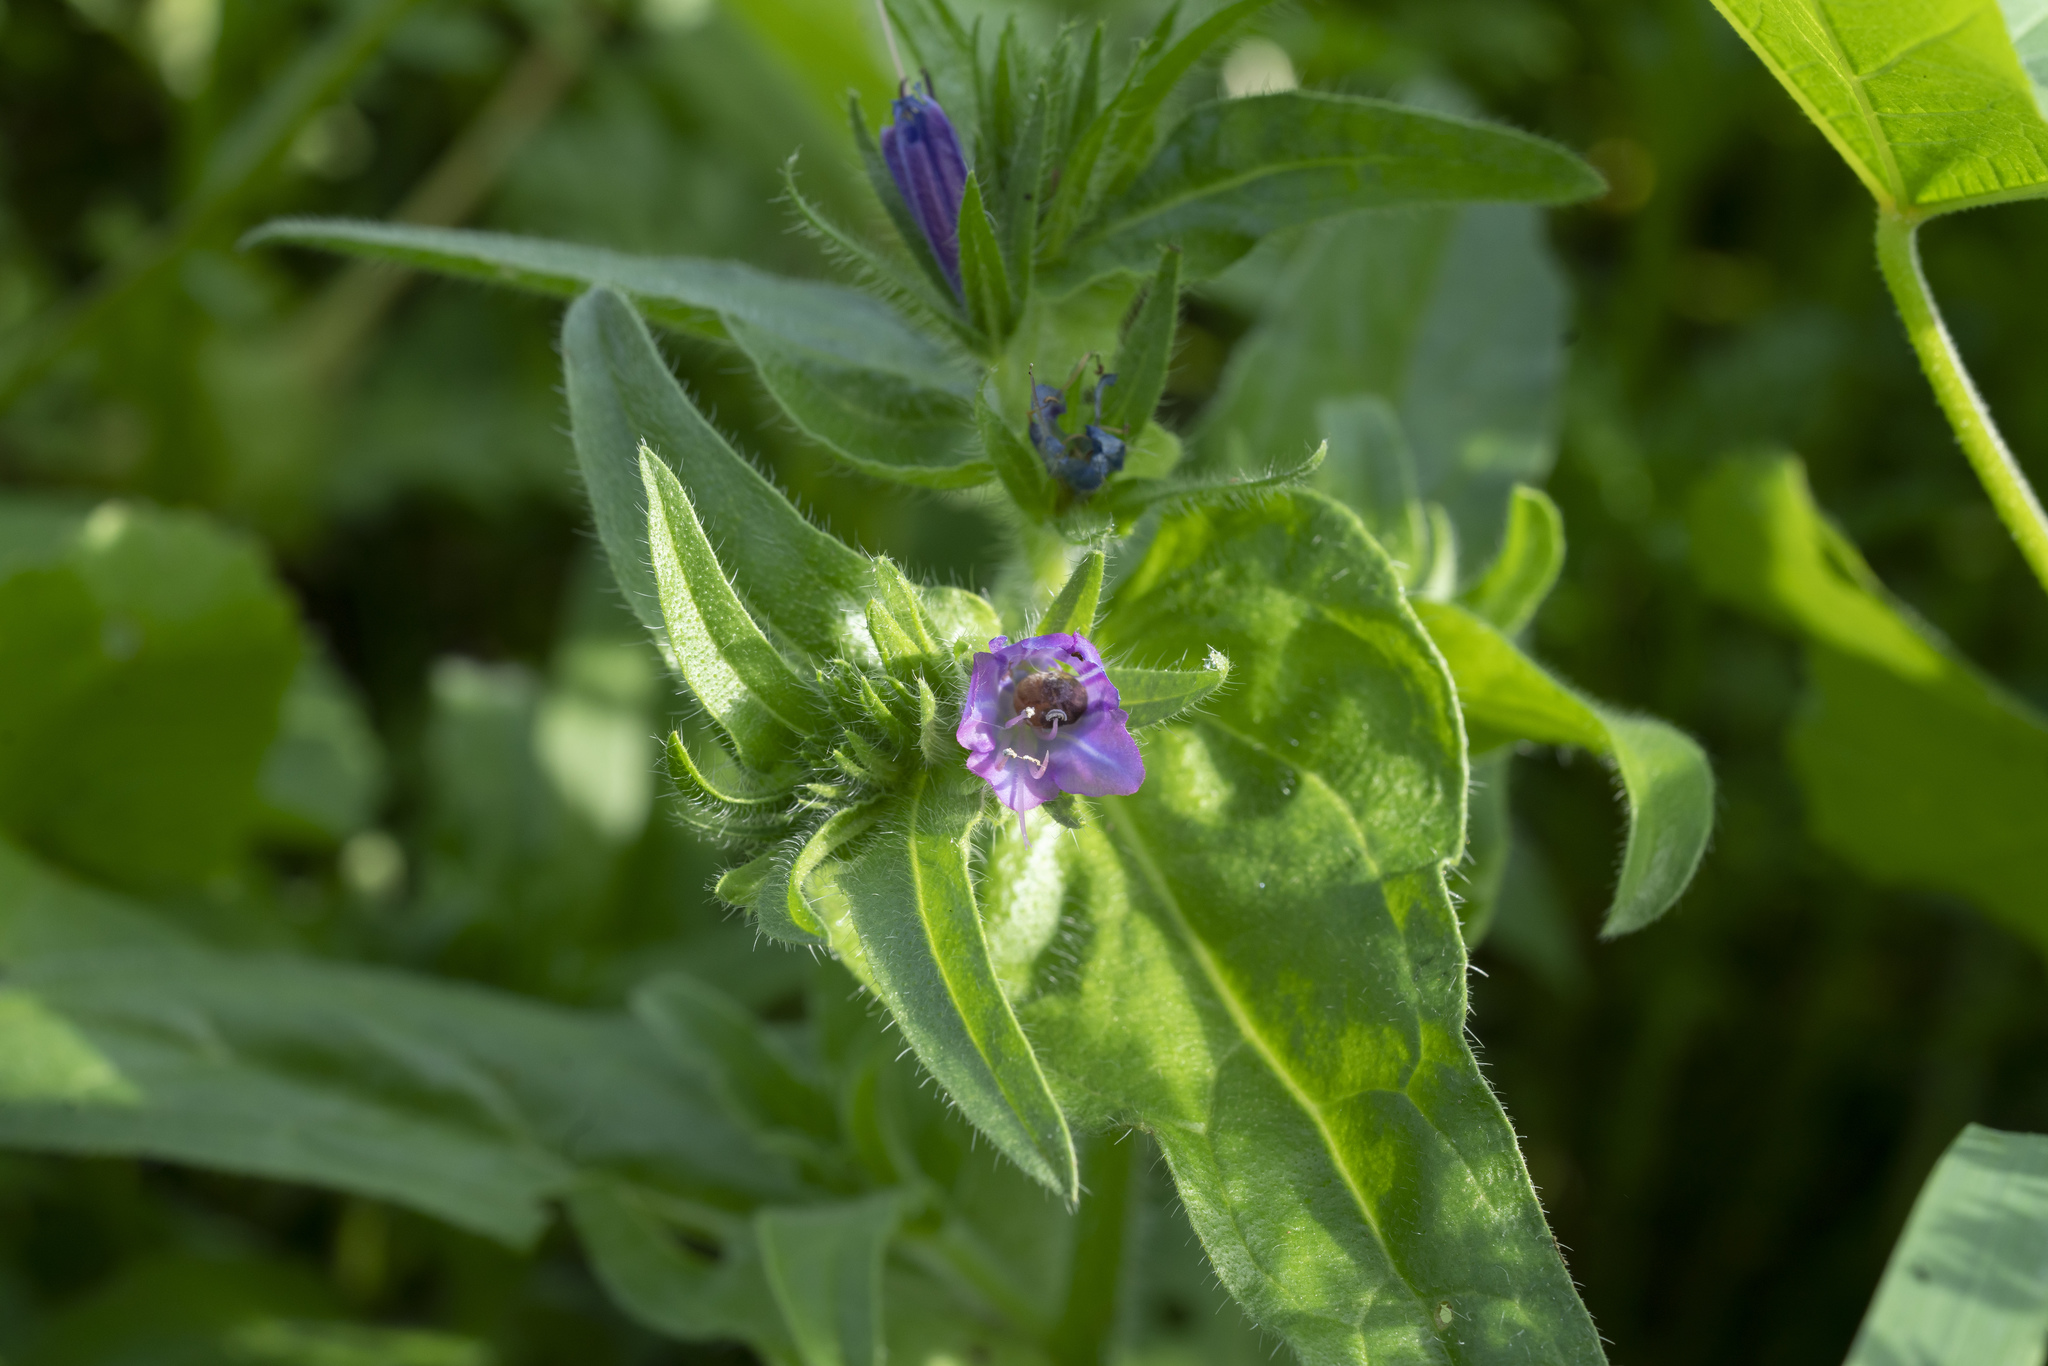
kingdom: Plantae
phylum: Tracheophyta
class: Magnoliopsida
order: Boraginales
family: Boraginaceae
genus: Echium
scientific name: Echium plantagineum
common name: Purple viper's-bugloss
